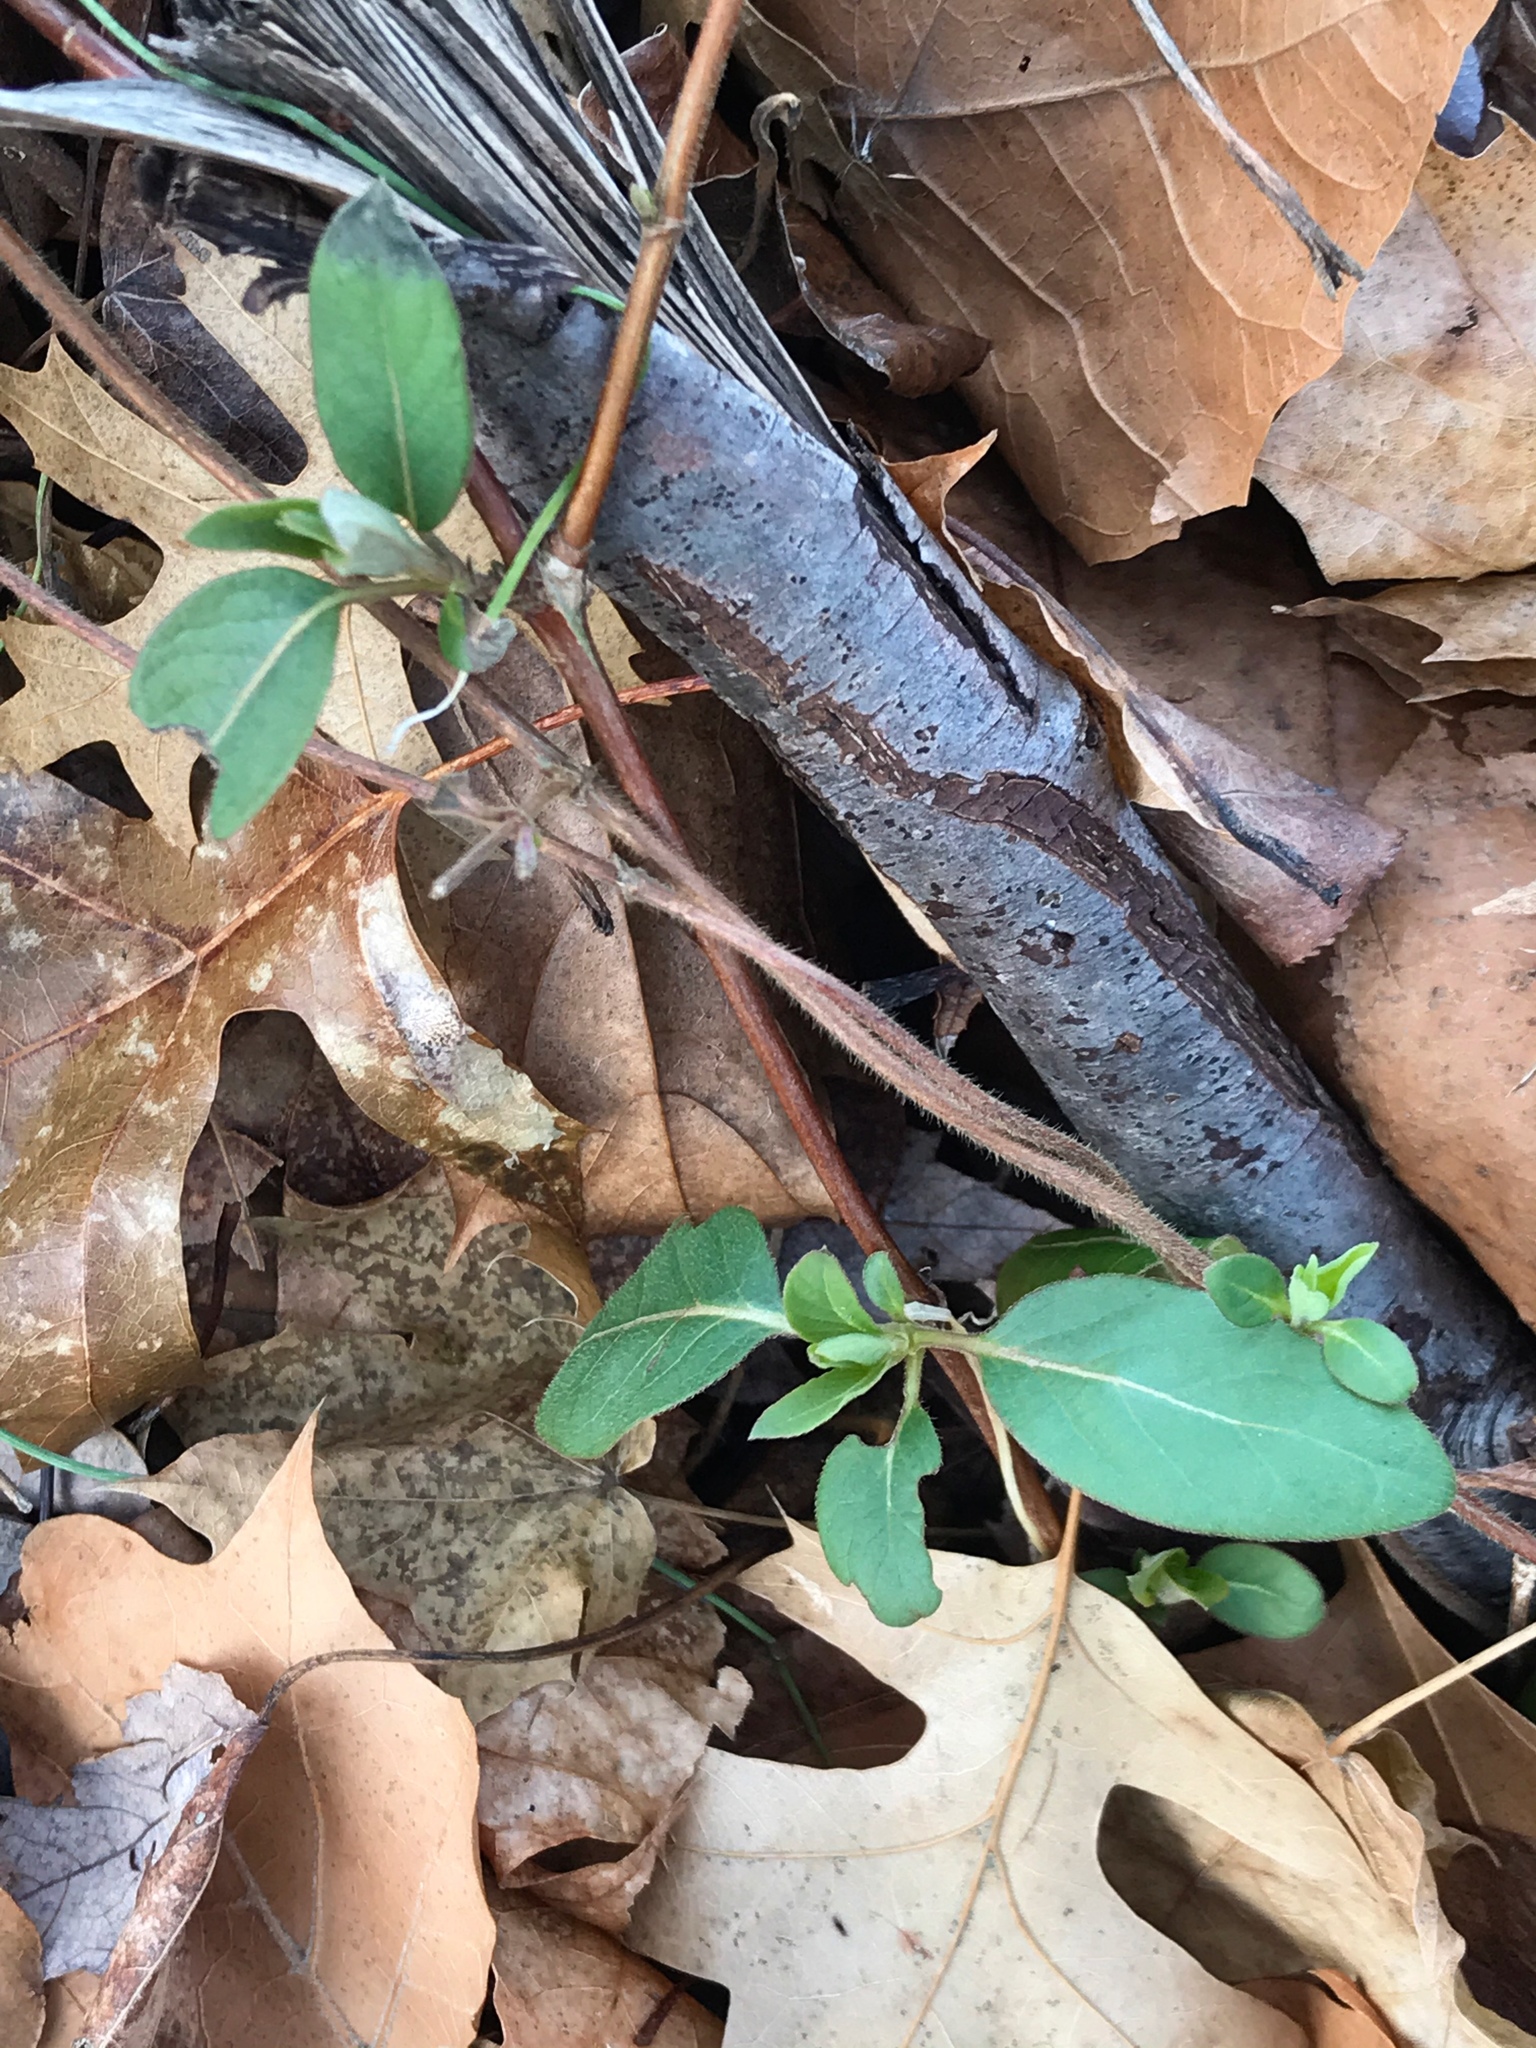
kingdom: Plantae
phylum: Tracheophyta
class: Magnoliopsida
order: Dipsacales
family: Caprifoliaceae
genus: Lonicera
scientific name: Lonicera japonica
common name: Japanese honeysuckle
